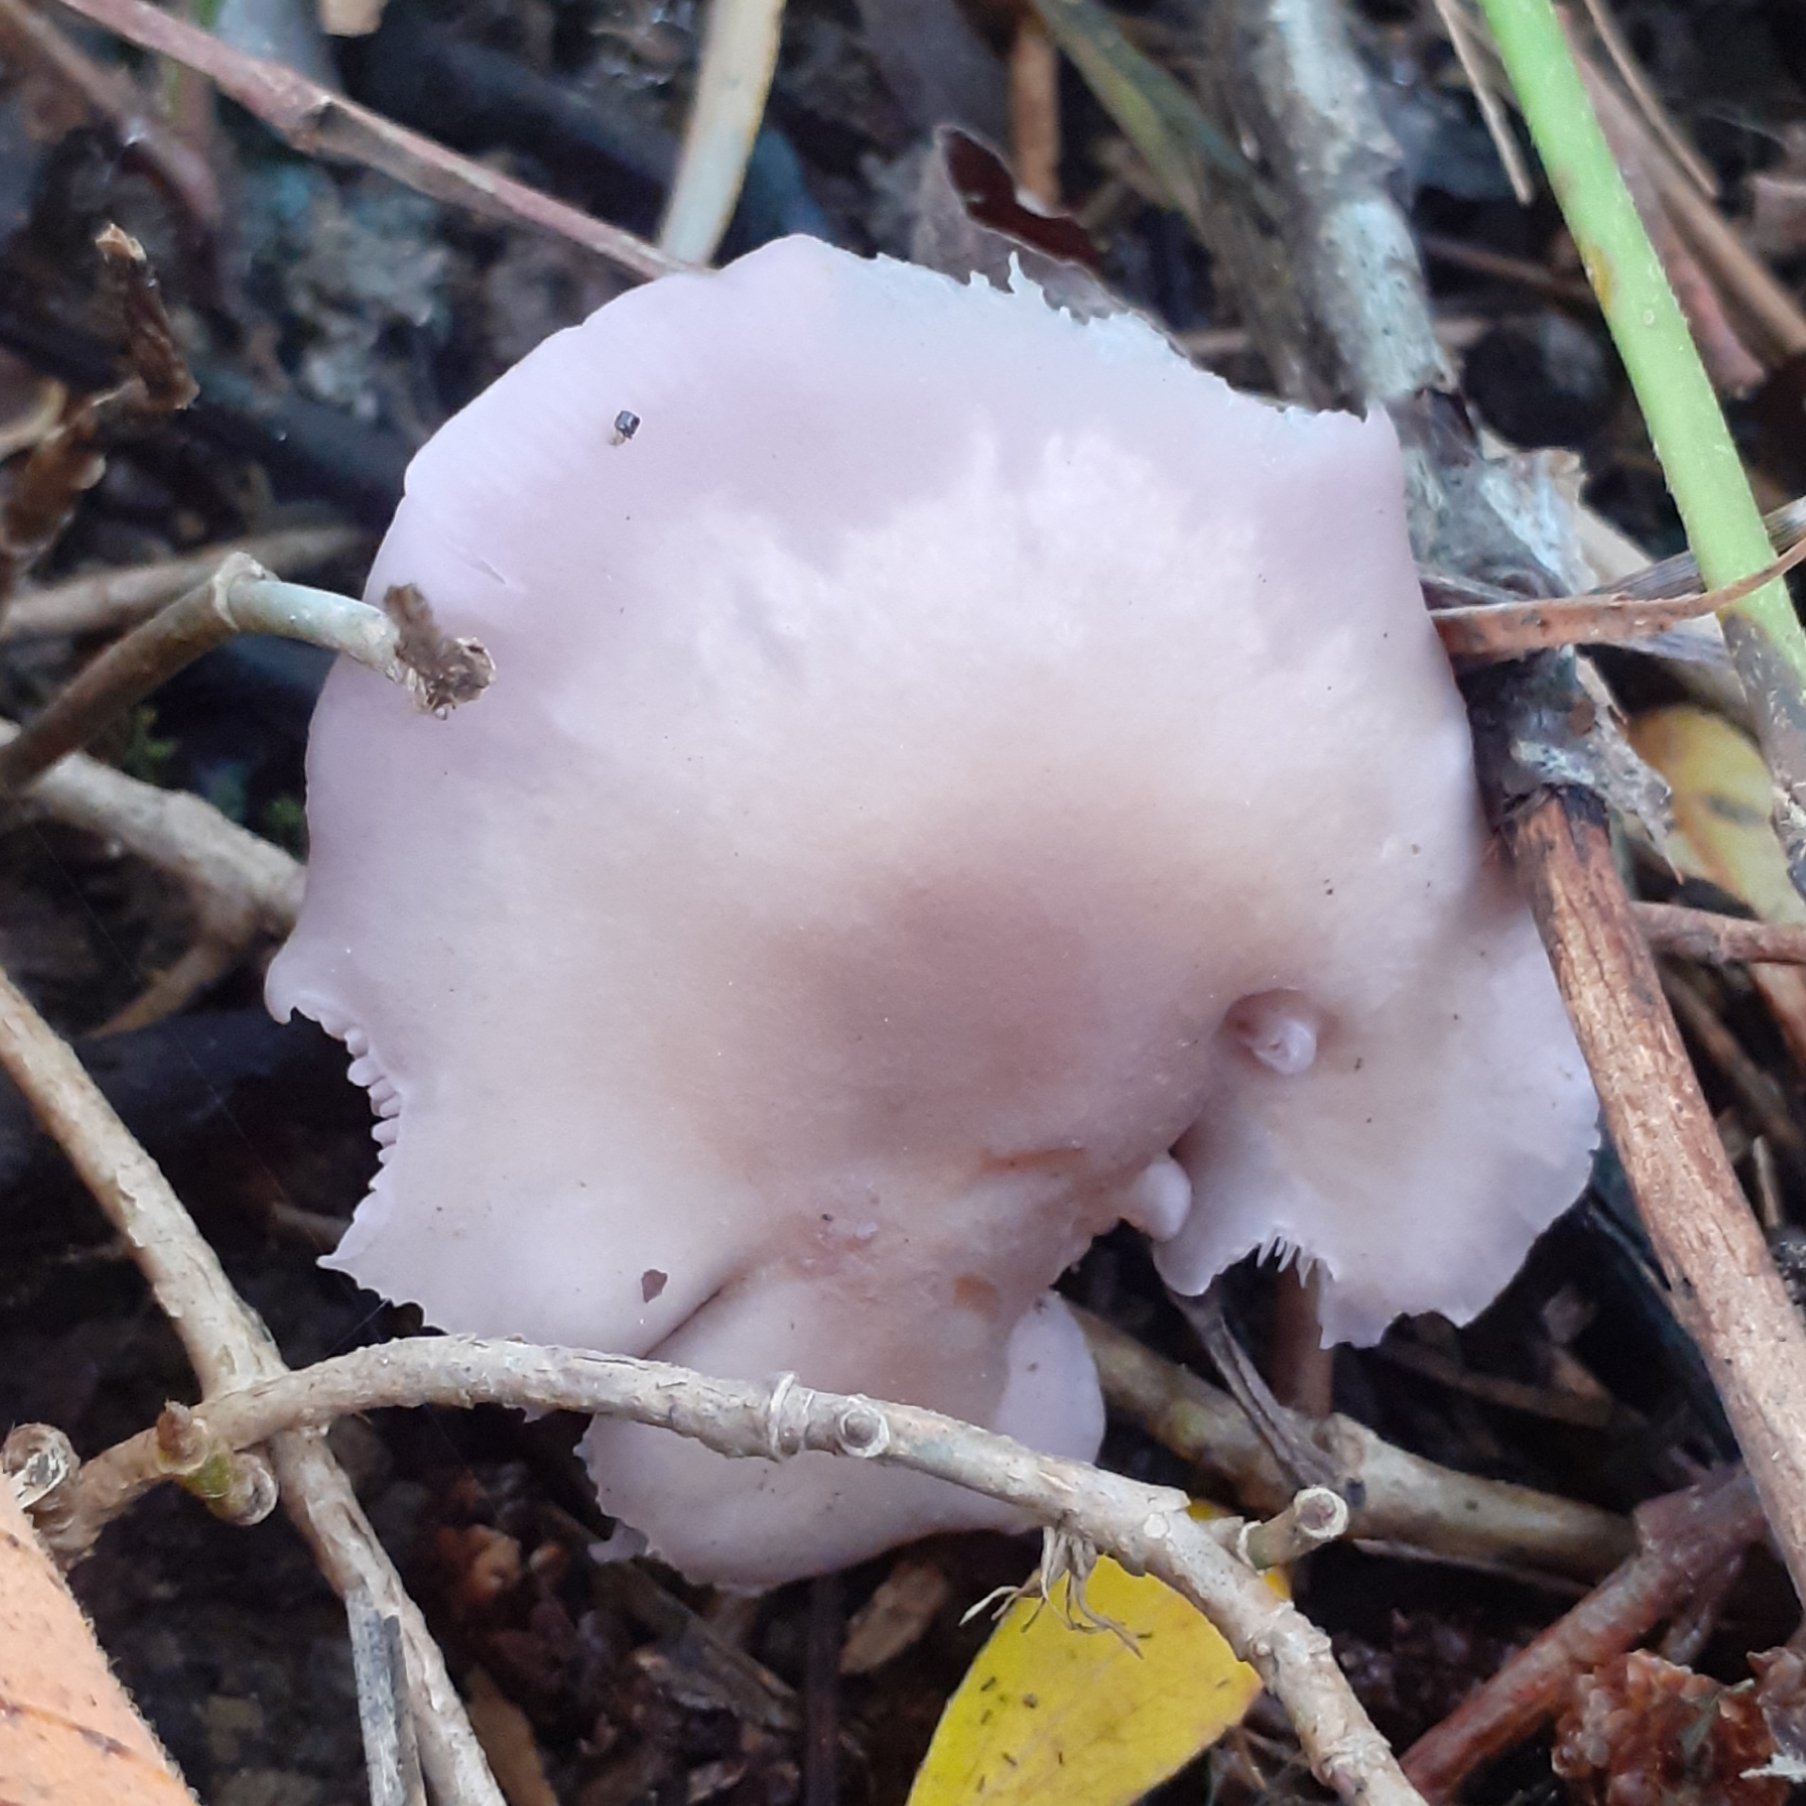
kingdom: Fungi
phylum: Basidiomycota
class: Agaricomycetes
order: Agaricales
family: Tricholomataceae
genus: Collybia
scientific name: Collybia
